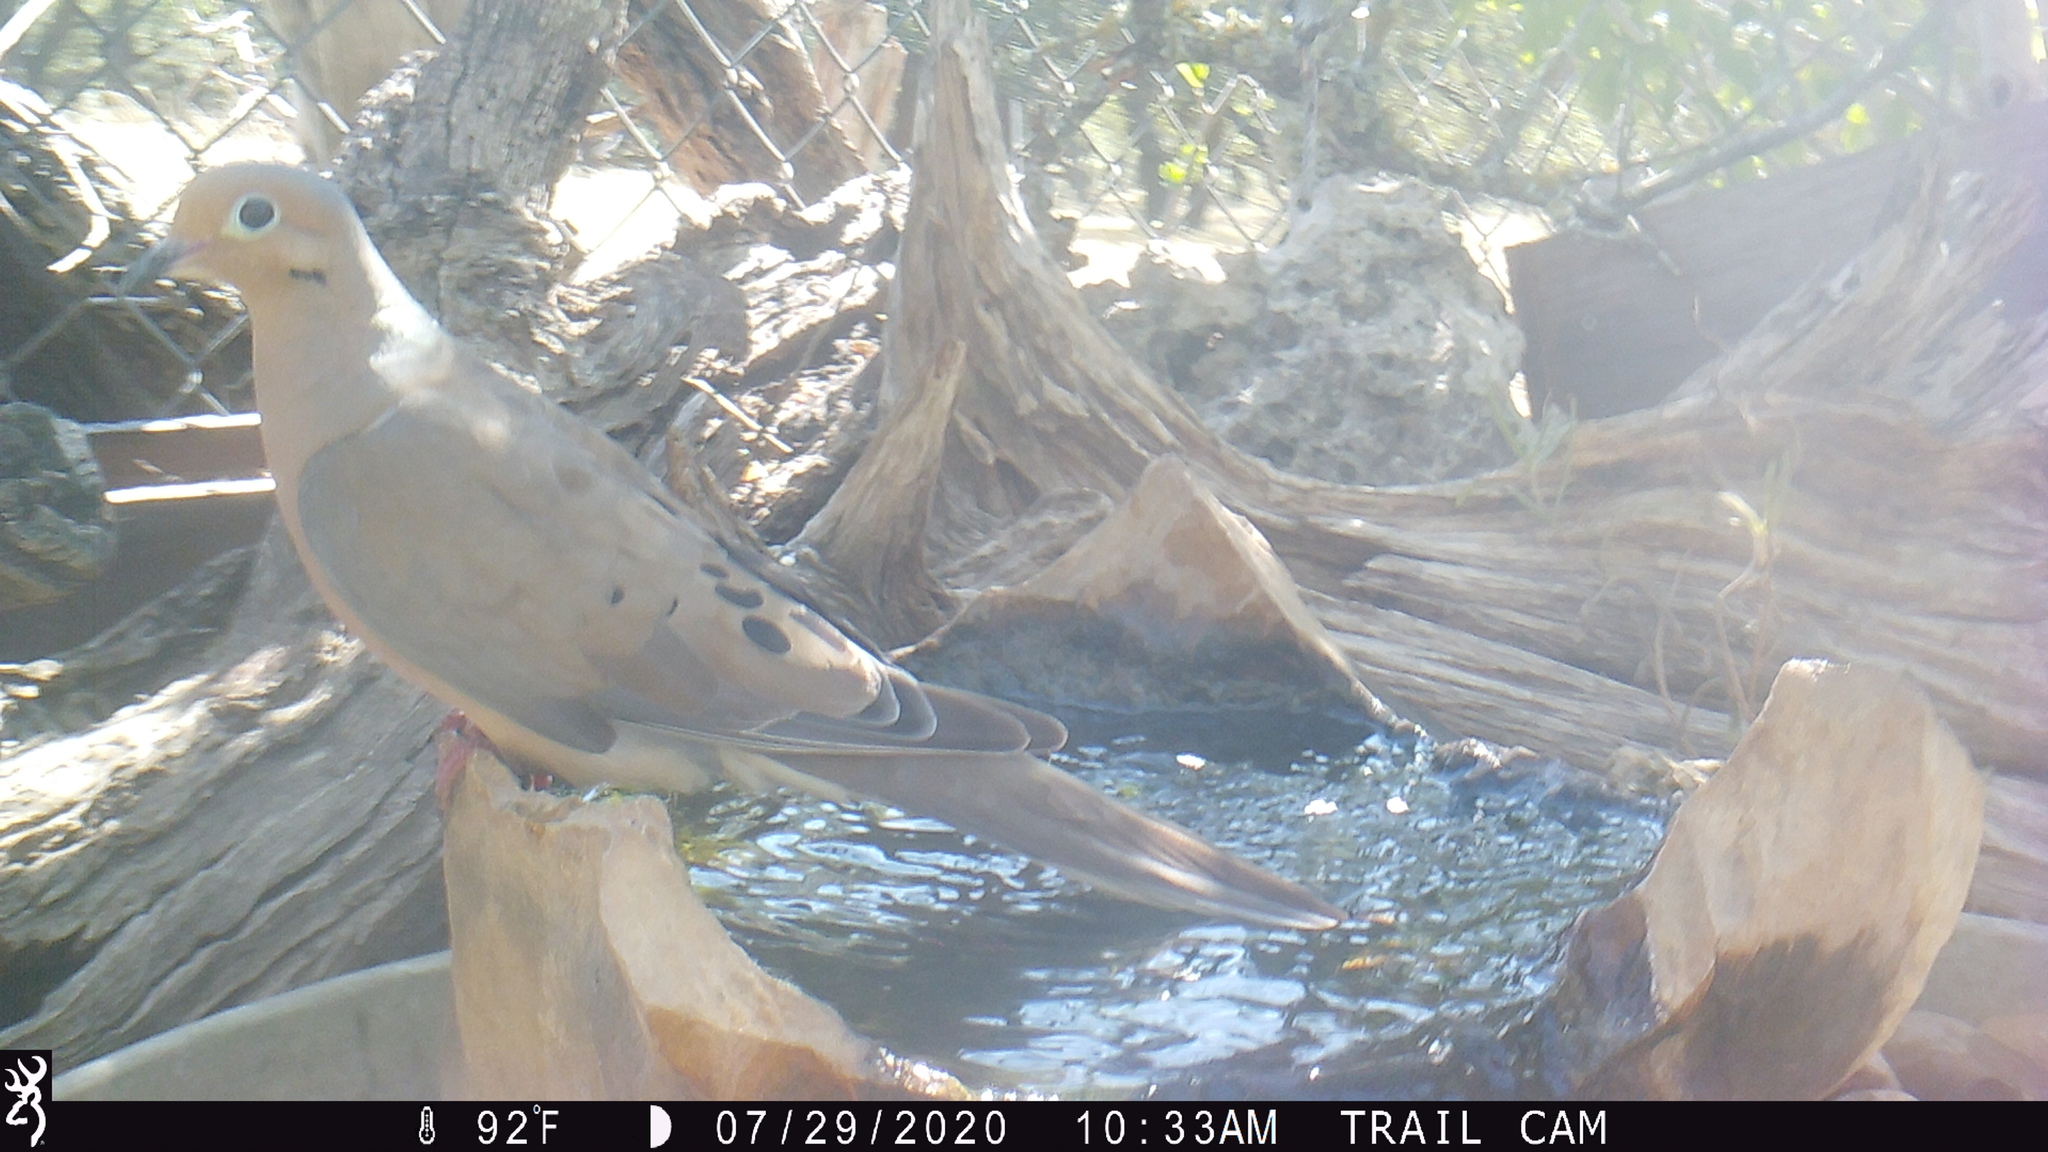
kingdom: Animalia
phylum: Chordata
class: Aves
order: Columbiformes
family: Columbidae
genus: Zenaida
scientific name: Zenaida macroura
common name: Mourning dove
